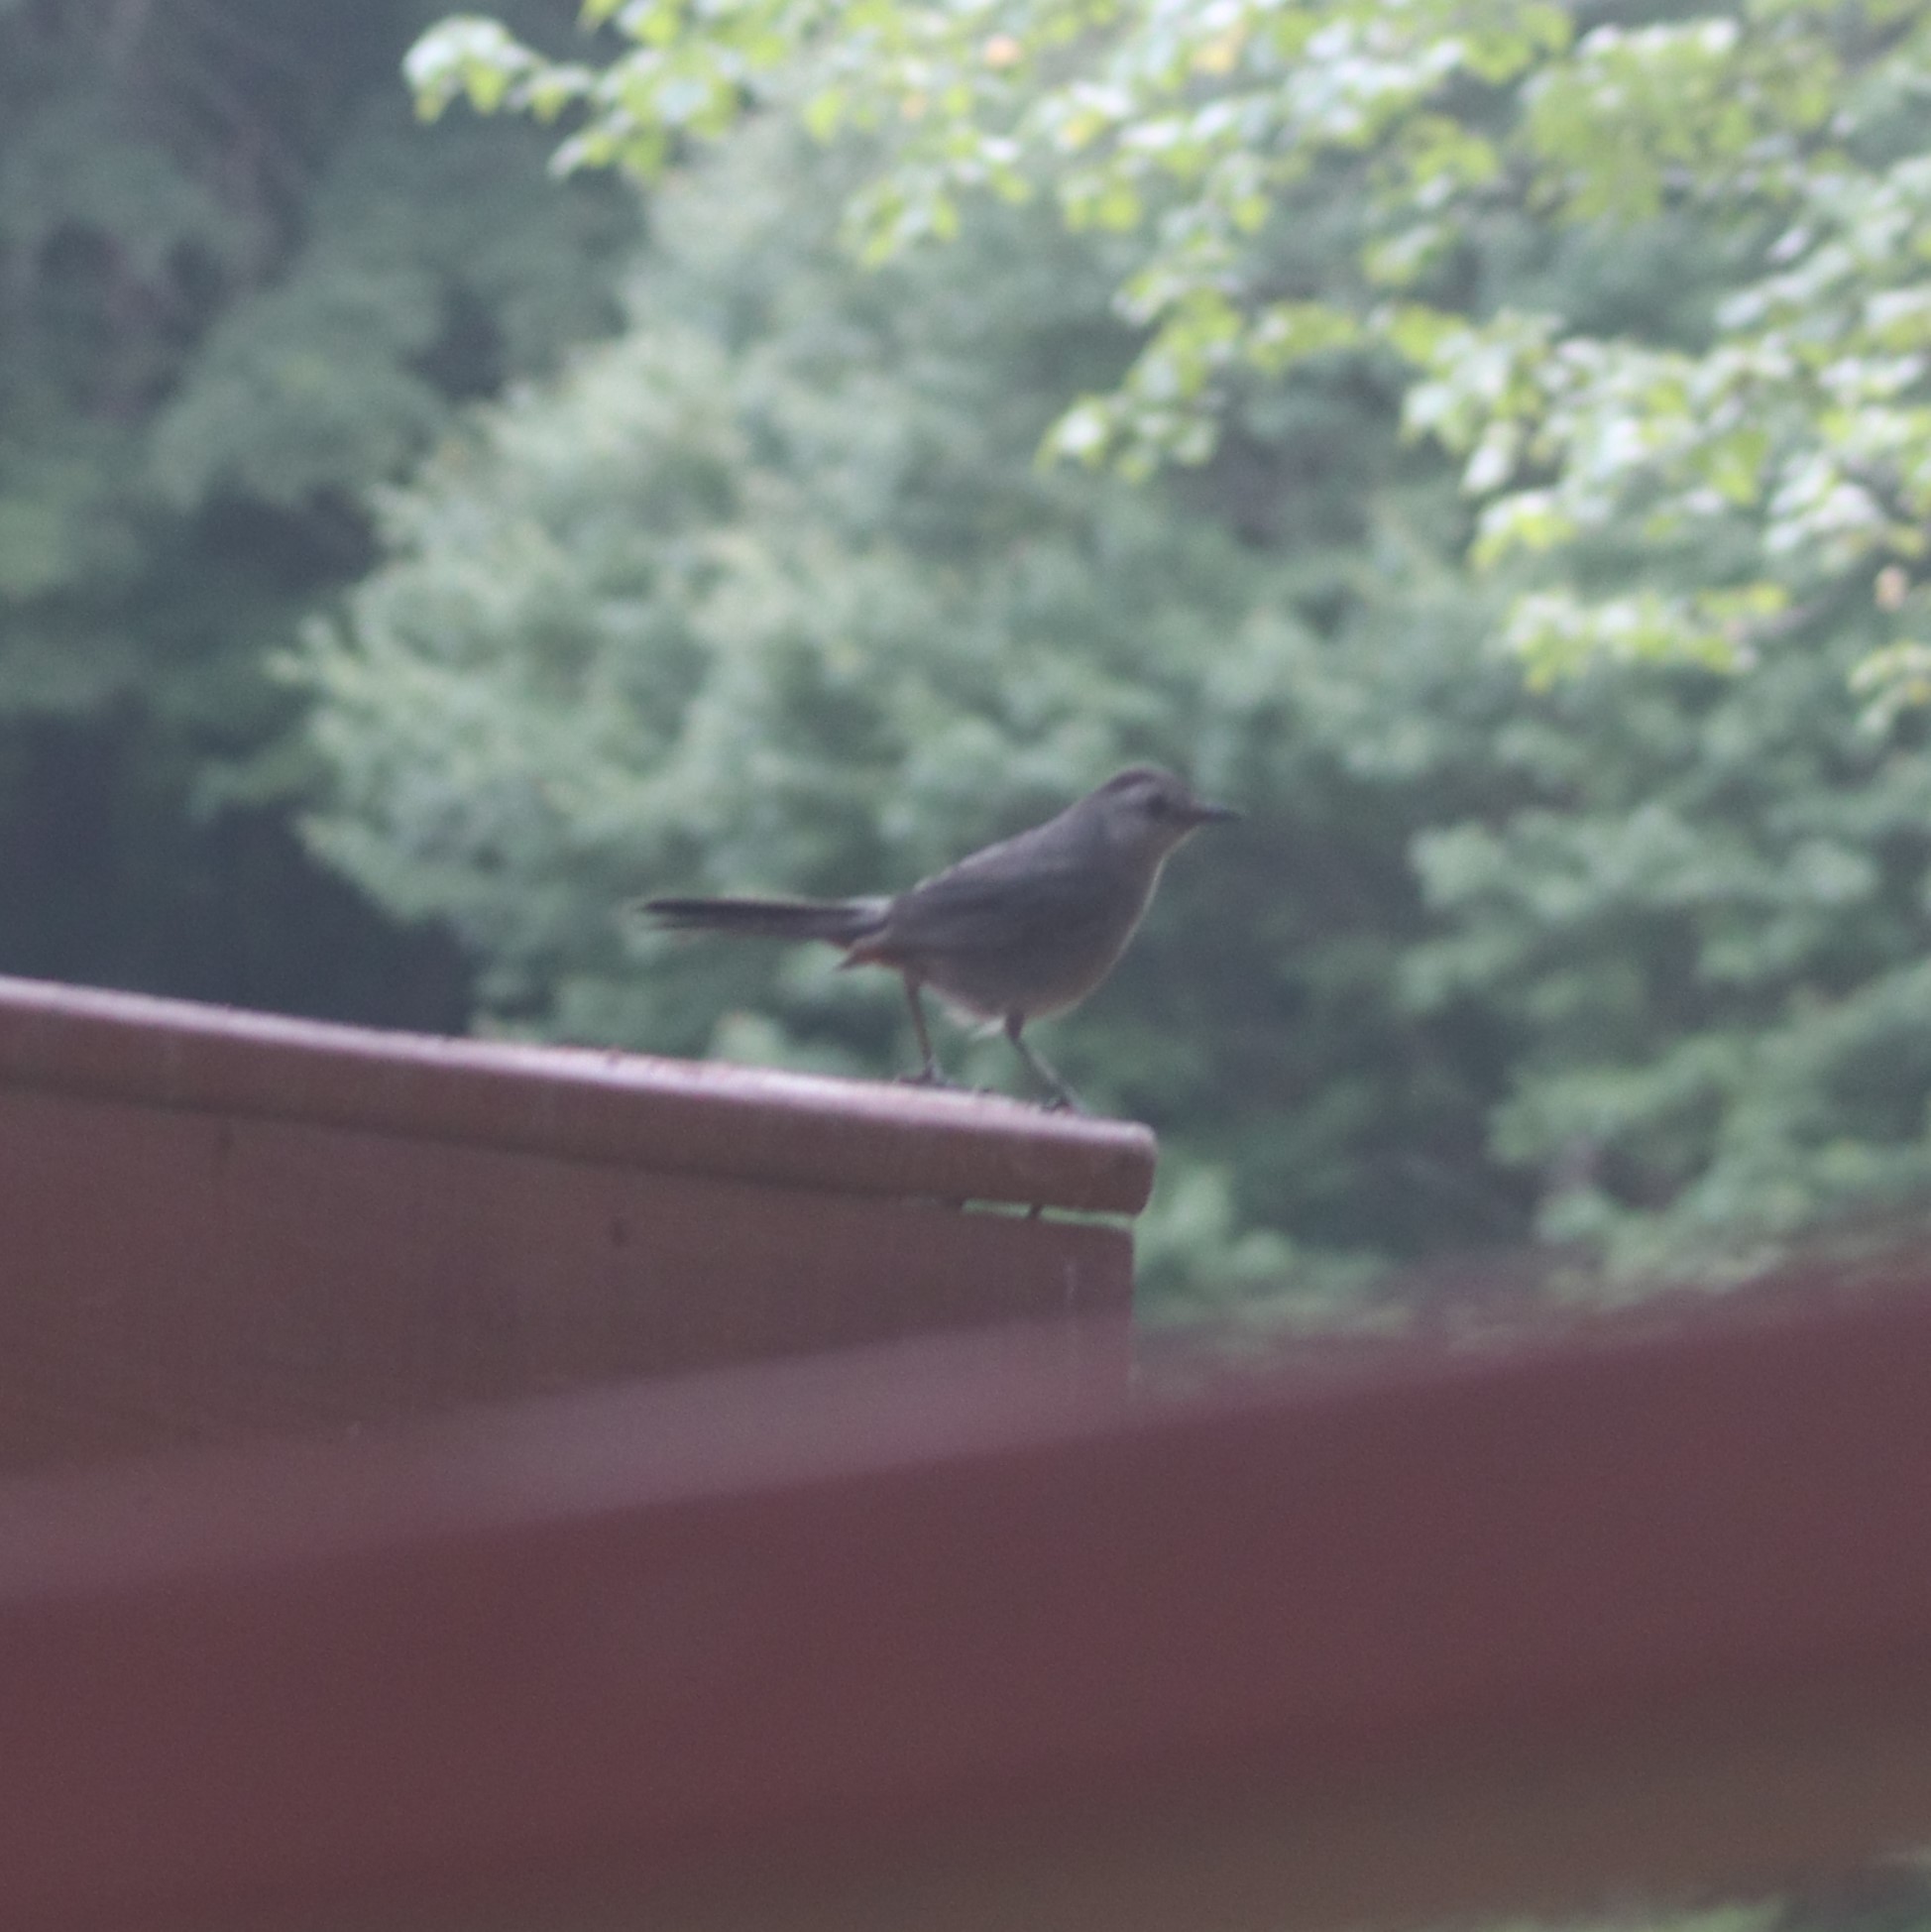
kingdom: Animalia
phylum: Chordata
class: Aves
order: Passeriformes
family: Mimidae
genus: Dumetella
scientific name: Dumetella carolinensis
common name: Gray catbird
